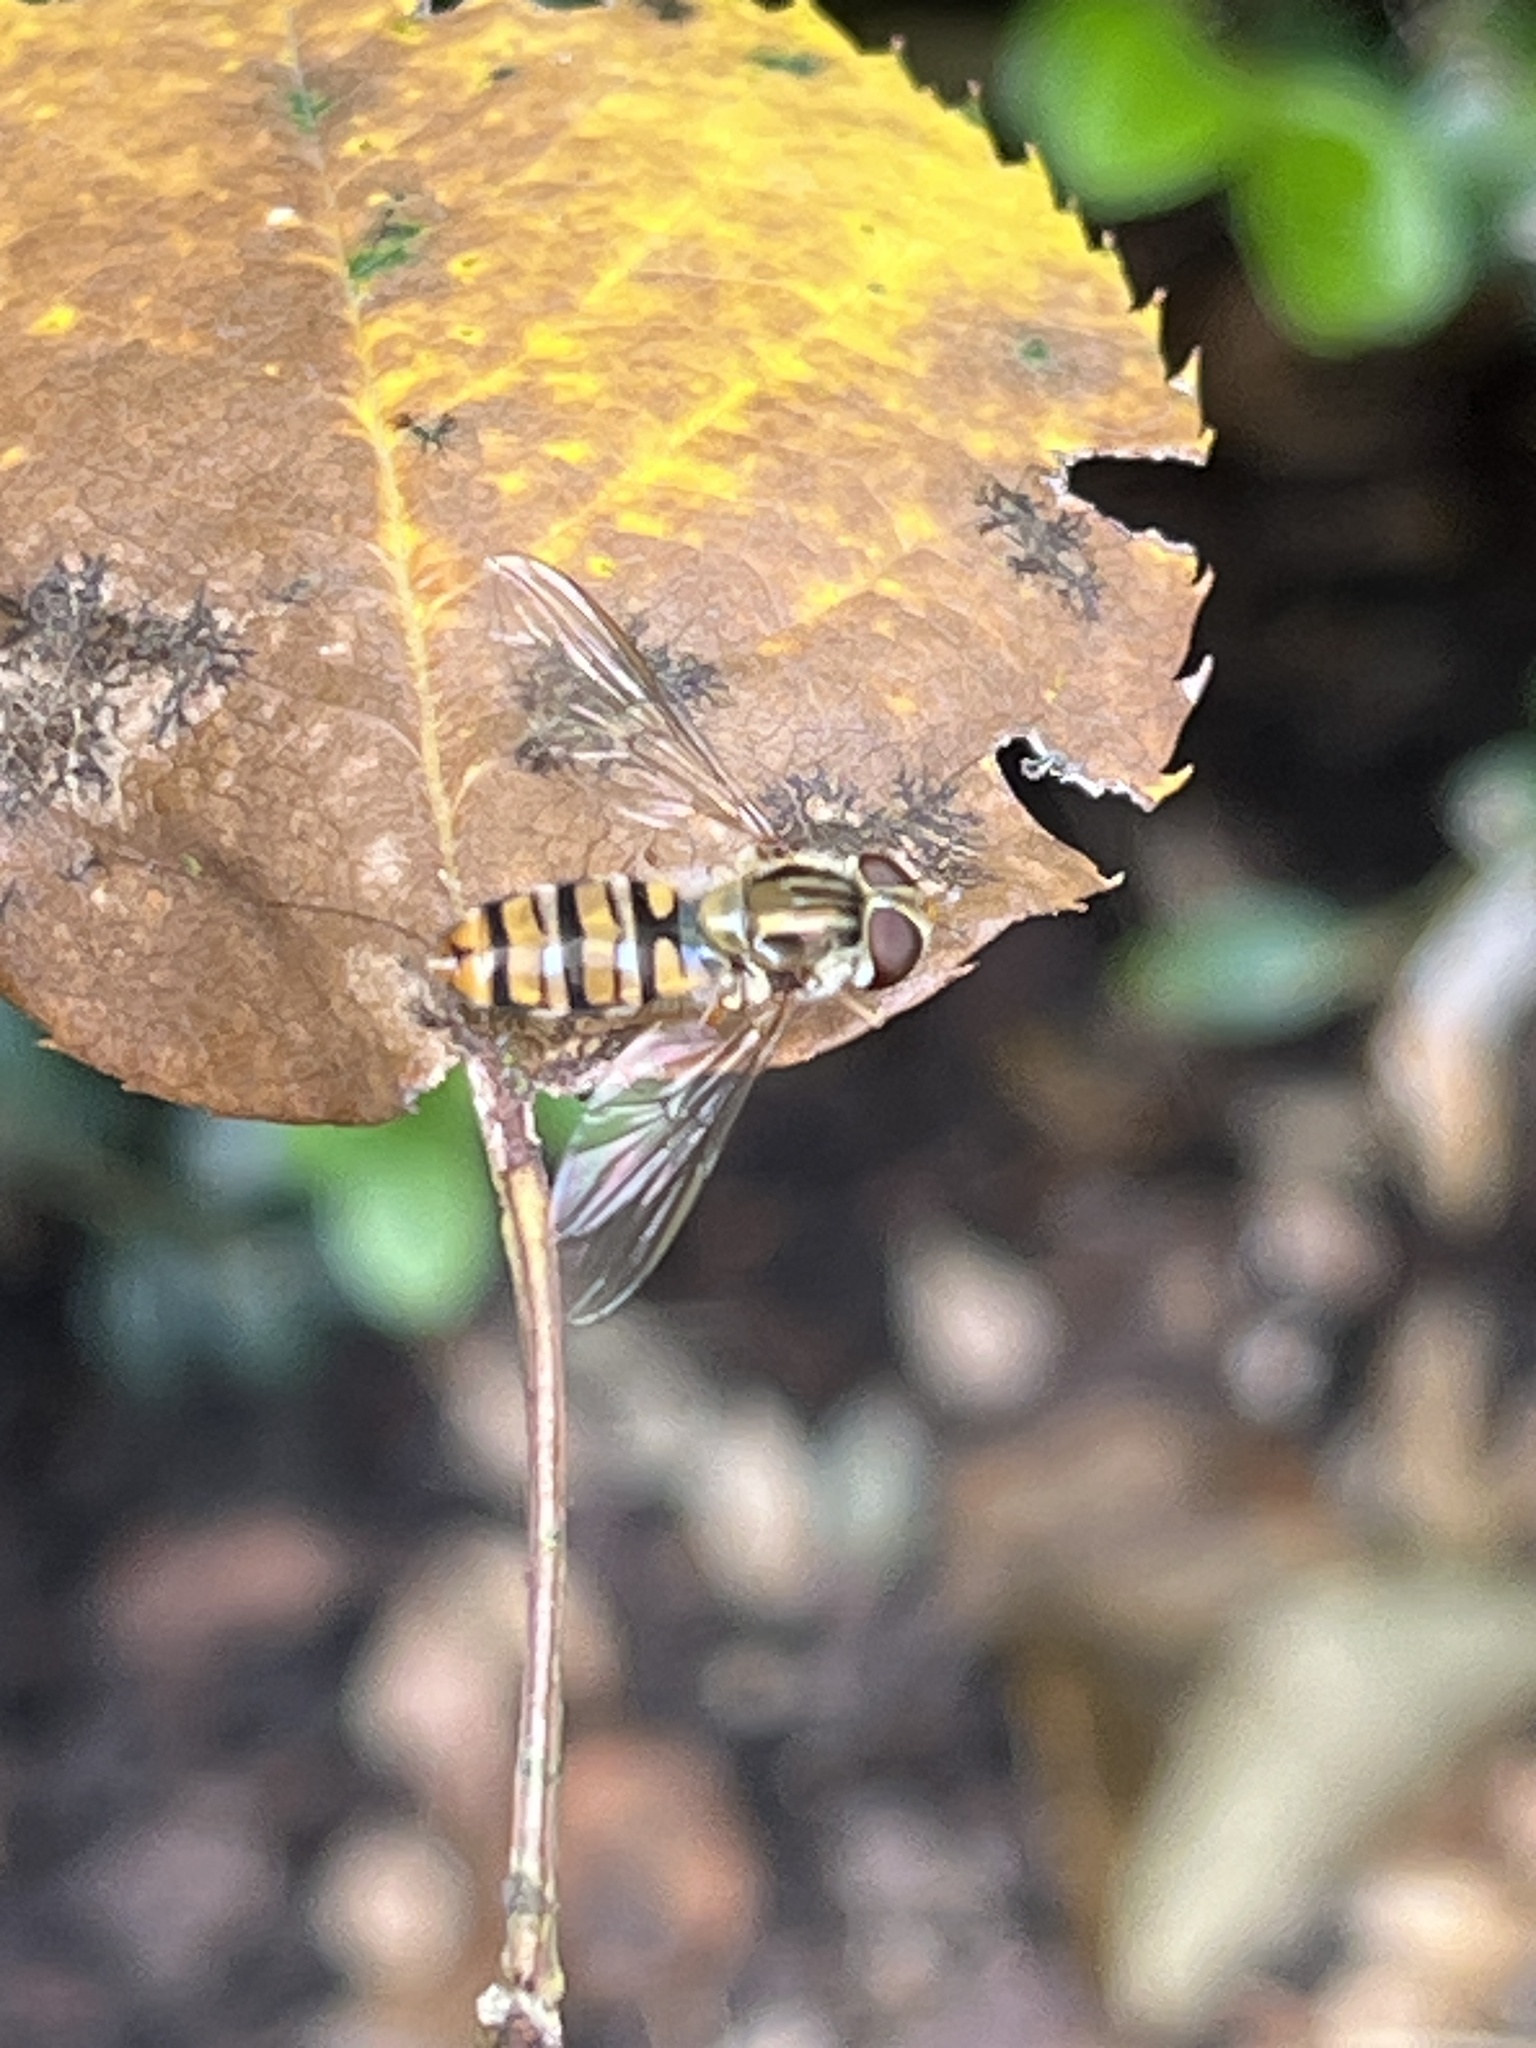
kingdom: Animalia
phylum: Arthropoda
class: Insecta
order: Diptera
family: Syrphidae
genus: Episyrphus
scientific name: Episyrphus balteatus
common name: Marmalade hoverfly
